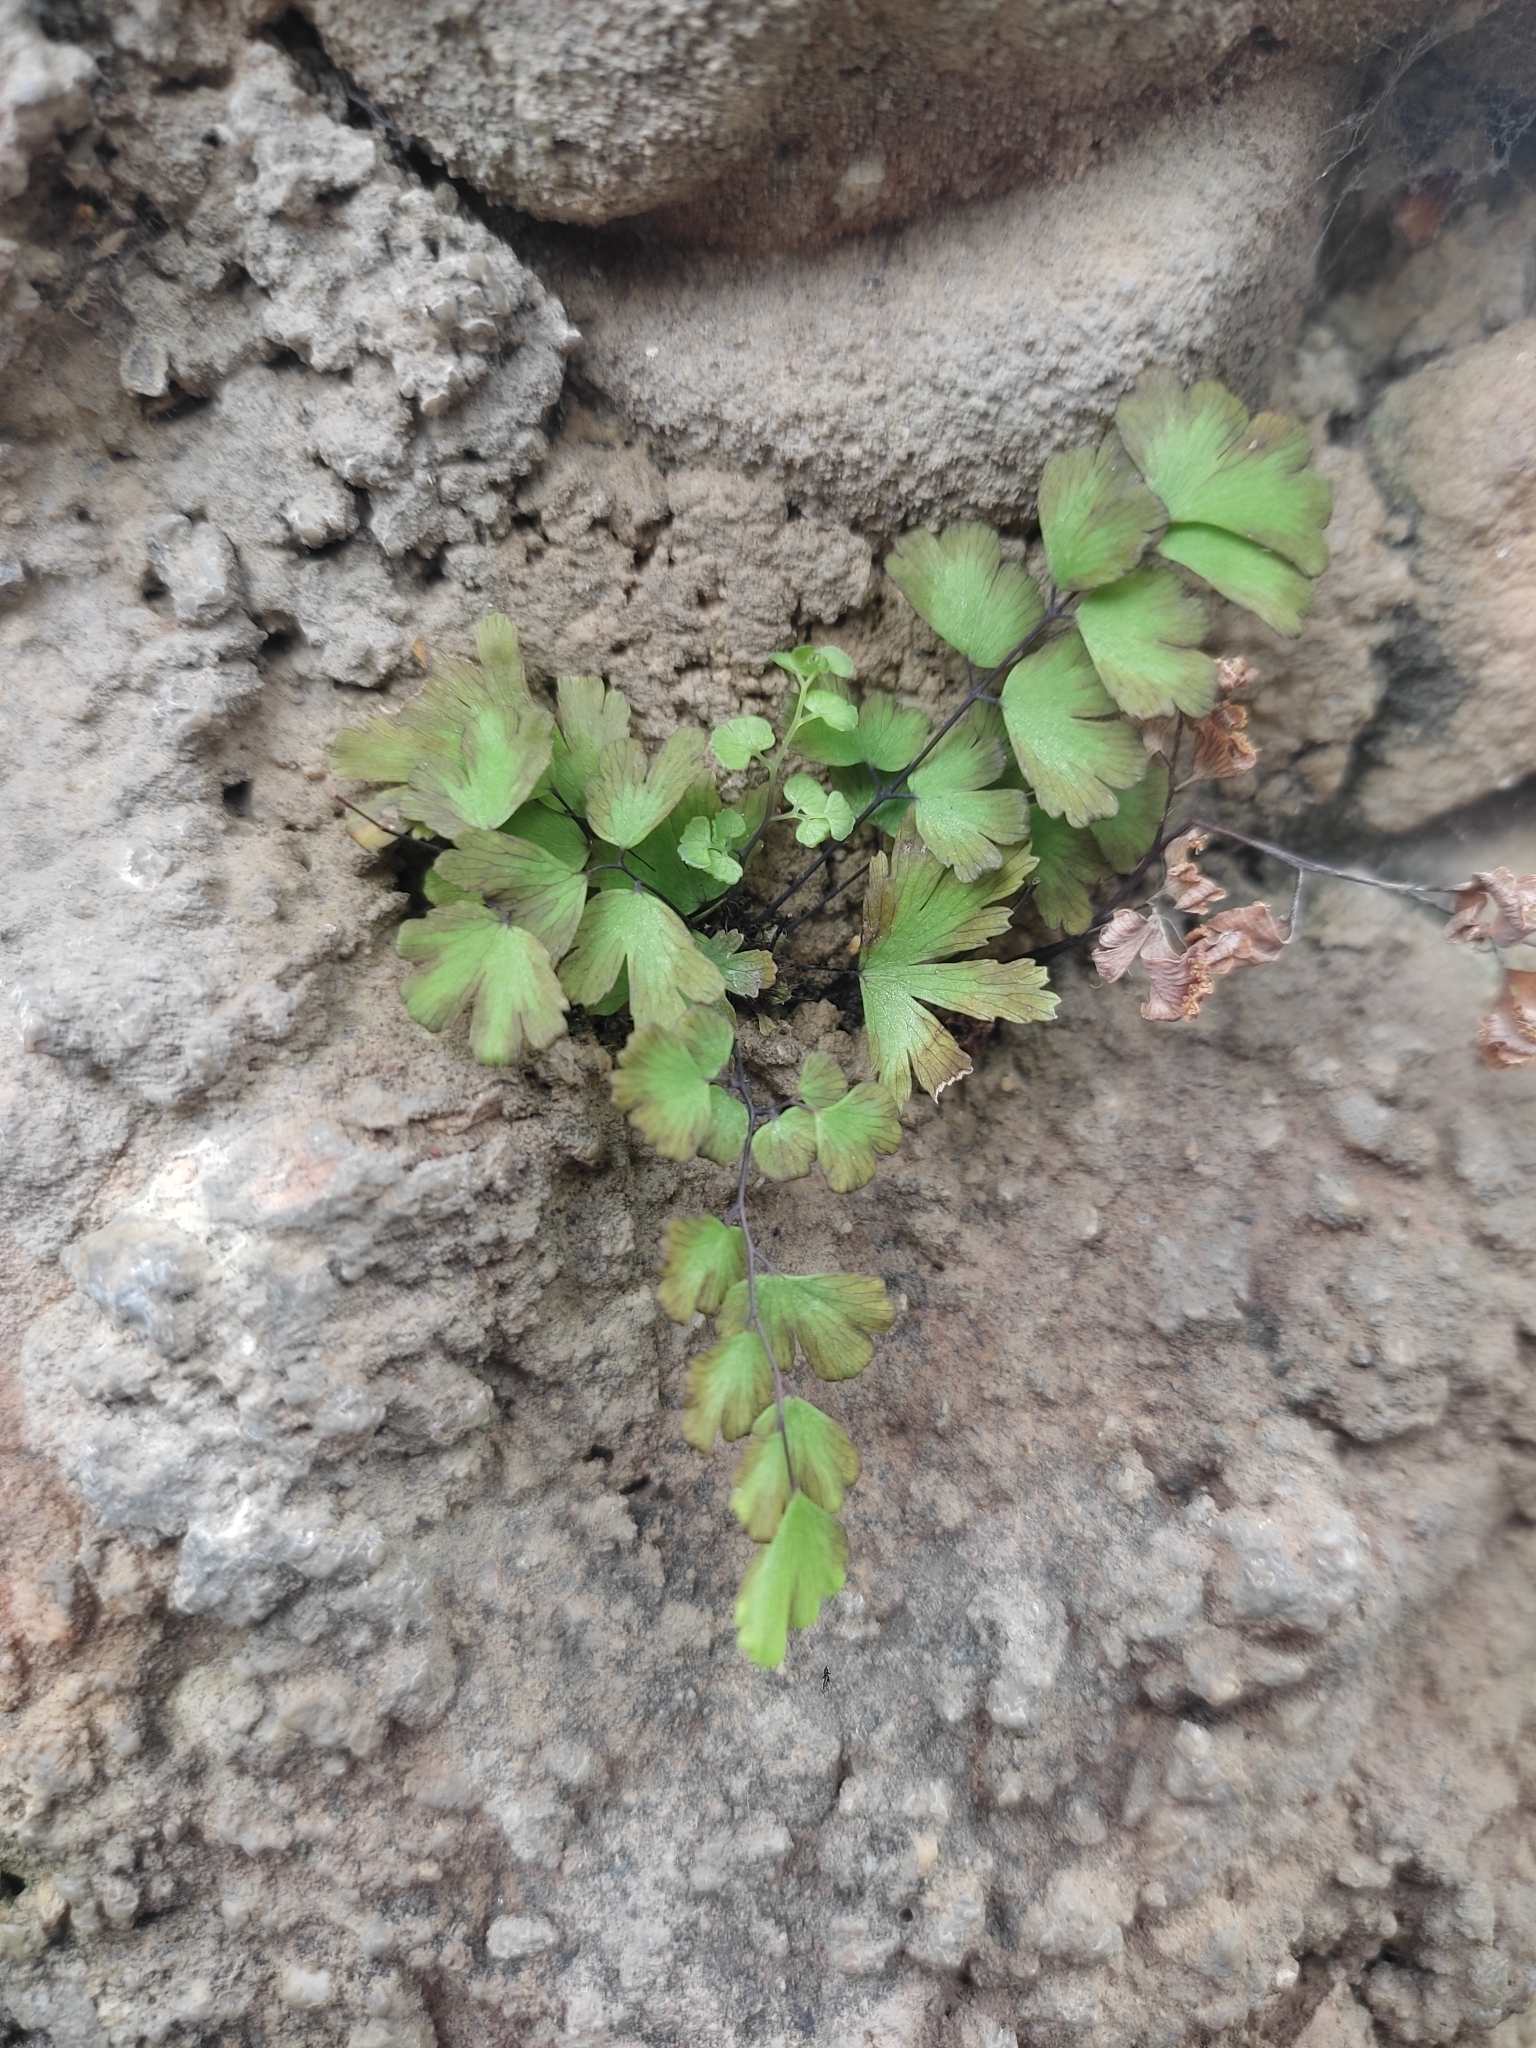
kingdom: Plantae
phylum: Tracheophyta
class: Polypodiopsida
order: Polypodiales
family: Pteridaceae
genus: Adiantum
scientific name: Adiantum capillus-veneris
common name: Maidenhair fern
